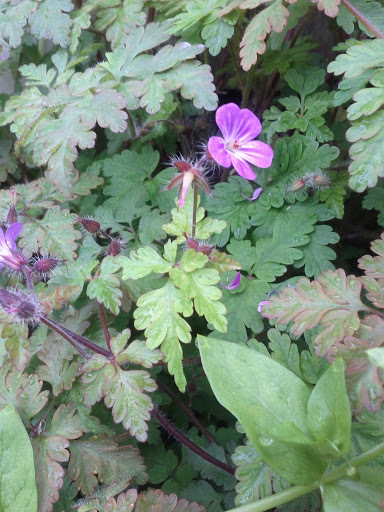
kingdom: Plantae
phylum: Tracheophyta
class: Magnoliopsida
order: Geraniales
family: Geraniaceae
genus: Geranium
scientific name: Geranium robertianum
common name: Herb-robert
